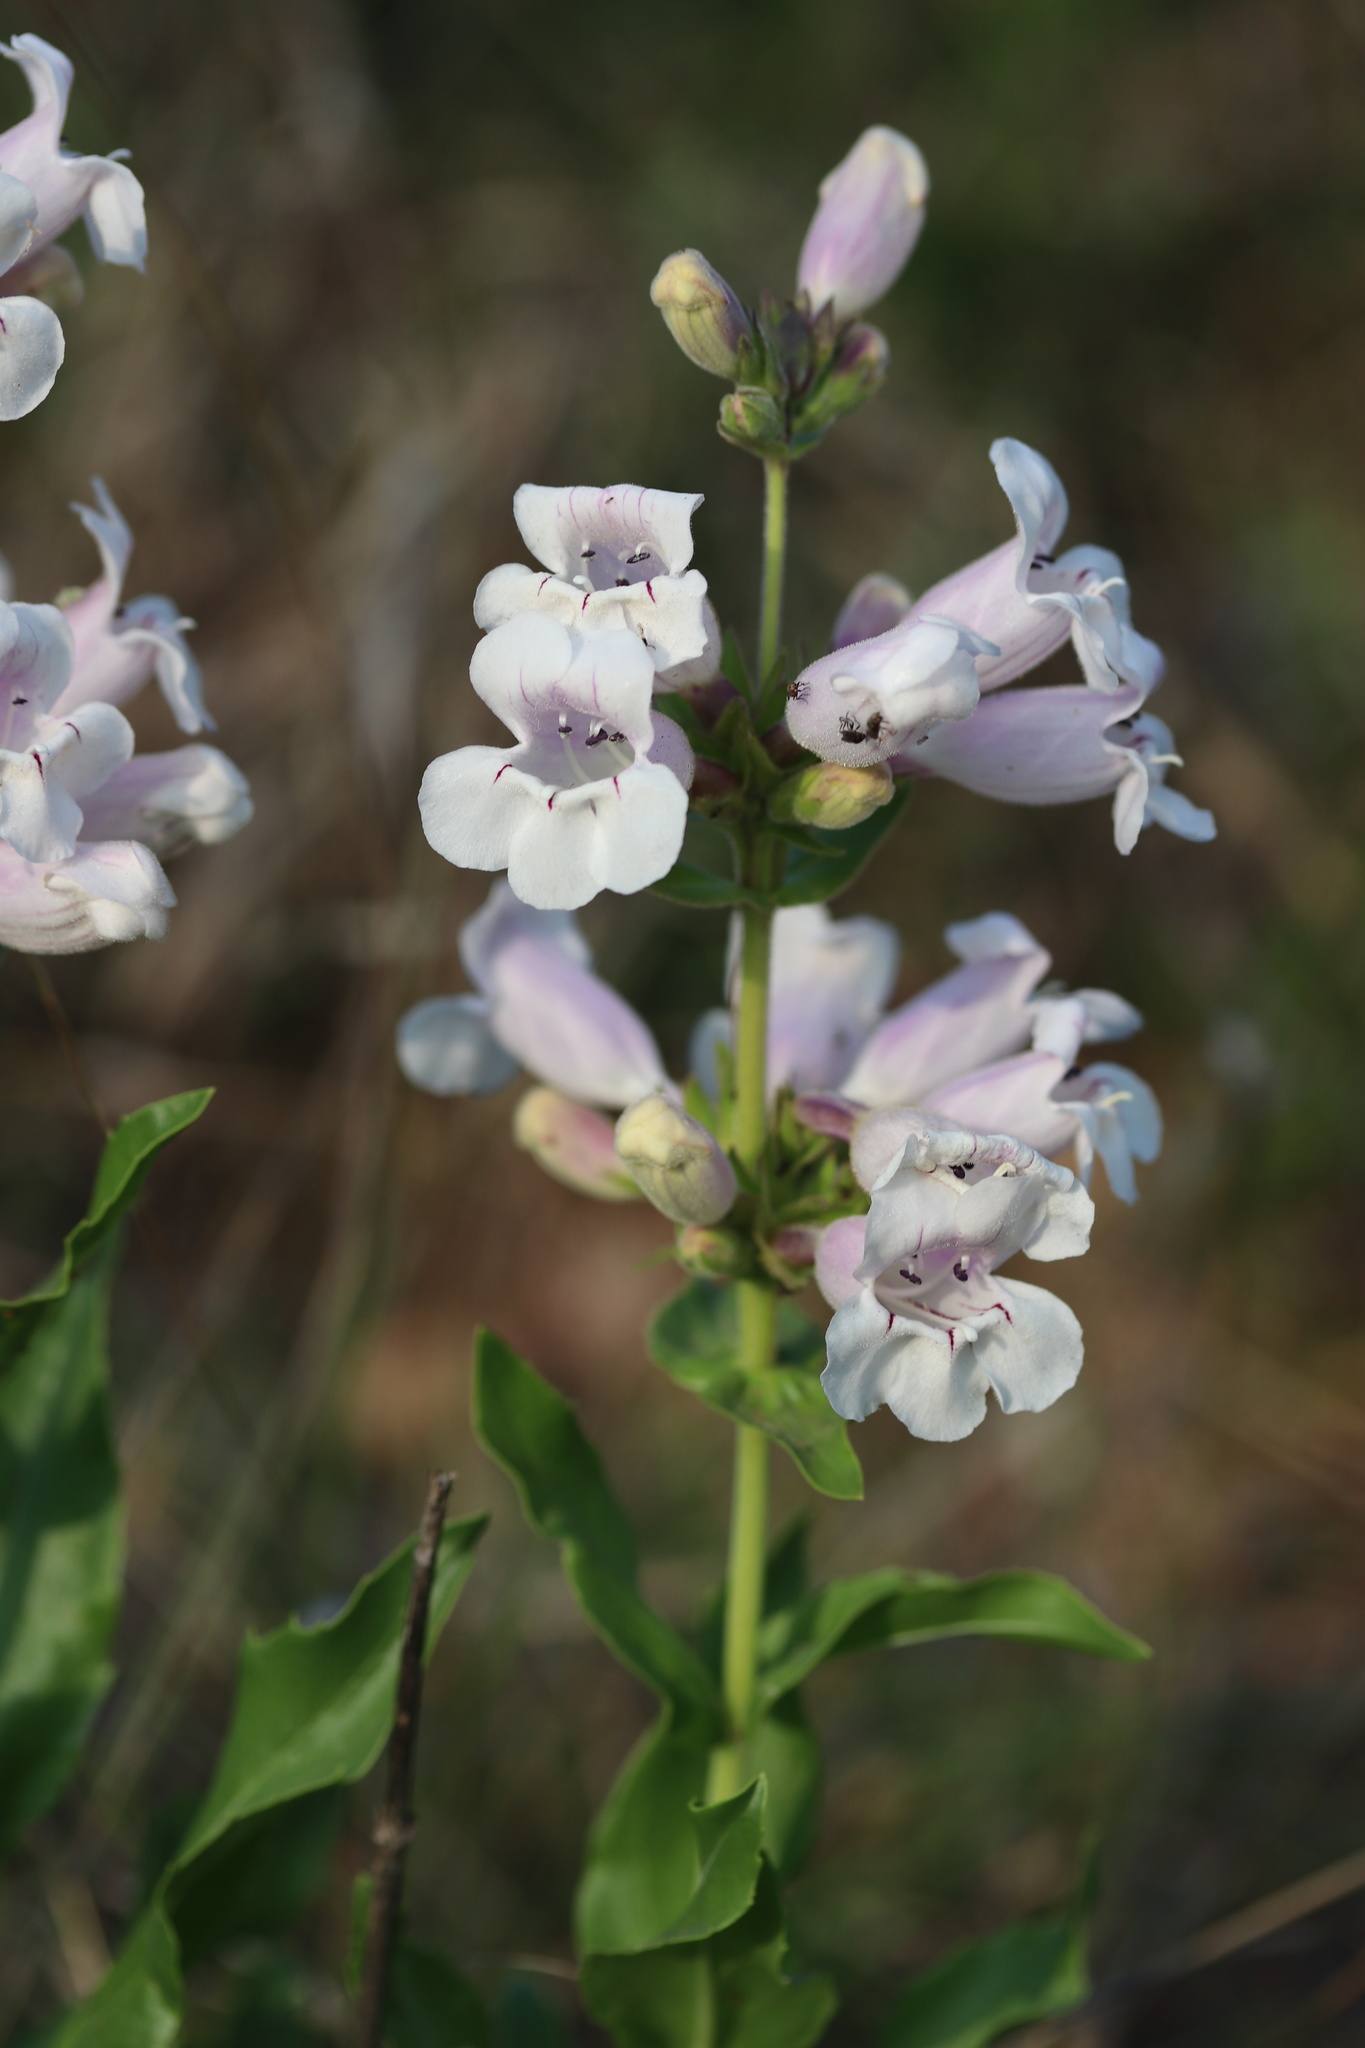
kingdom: Plantae
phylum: Tracheophyta
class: Magnoliopsida
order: Lamiales
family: Plantaginaceae
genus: Penstemon
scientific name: Penstemon cobaea
